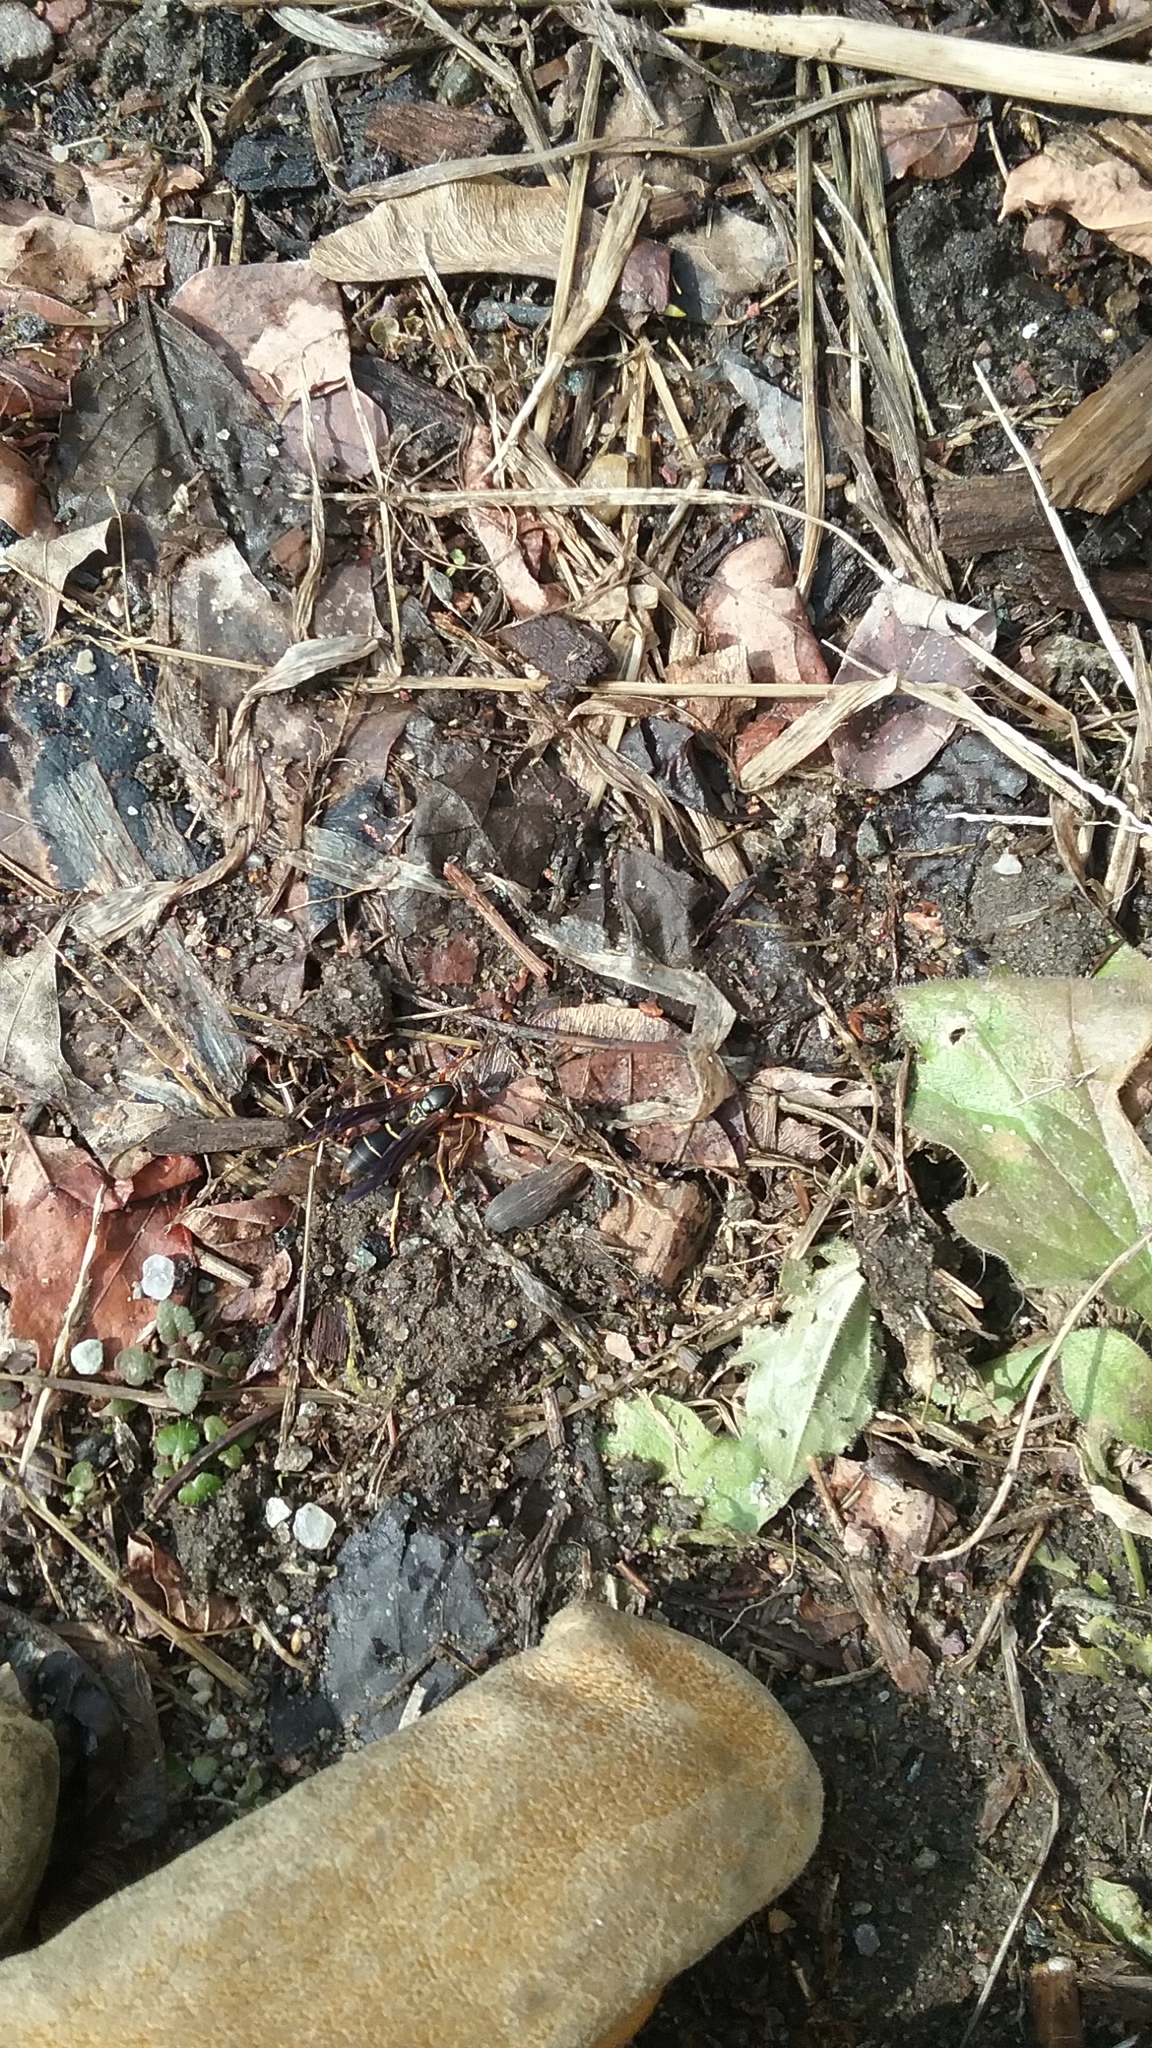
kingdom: Animalia
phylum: Arthropoda
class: Insecta
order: Hymenoptera
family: Eumenidae
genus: Polistes
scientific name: Polistes fuscatus
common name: Dark paper wasp
